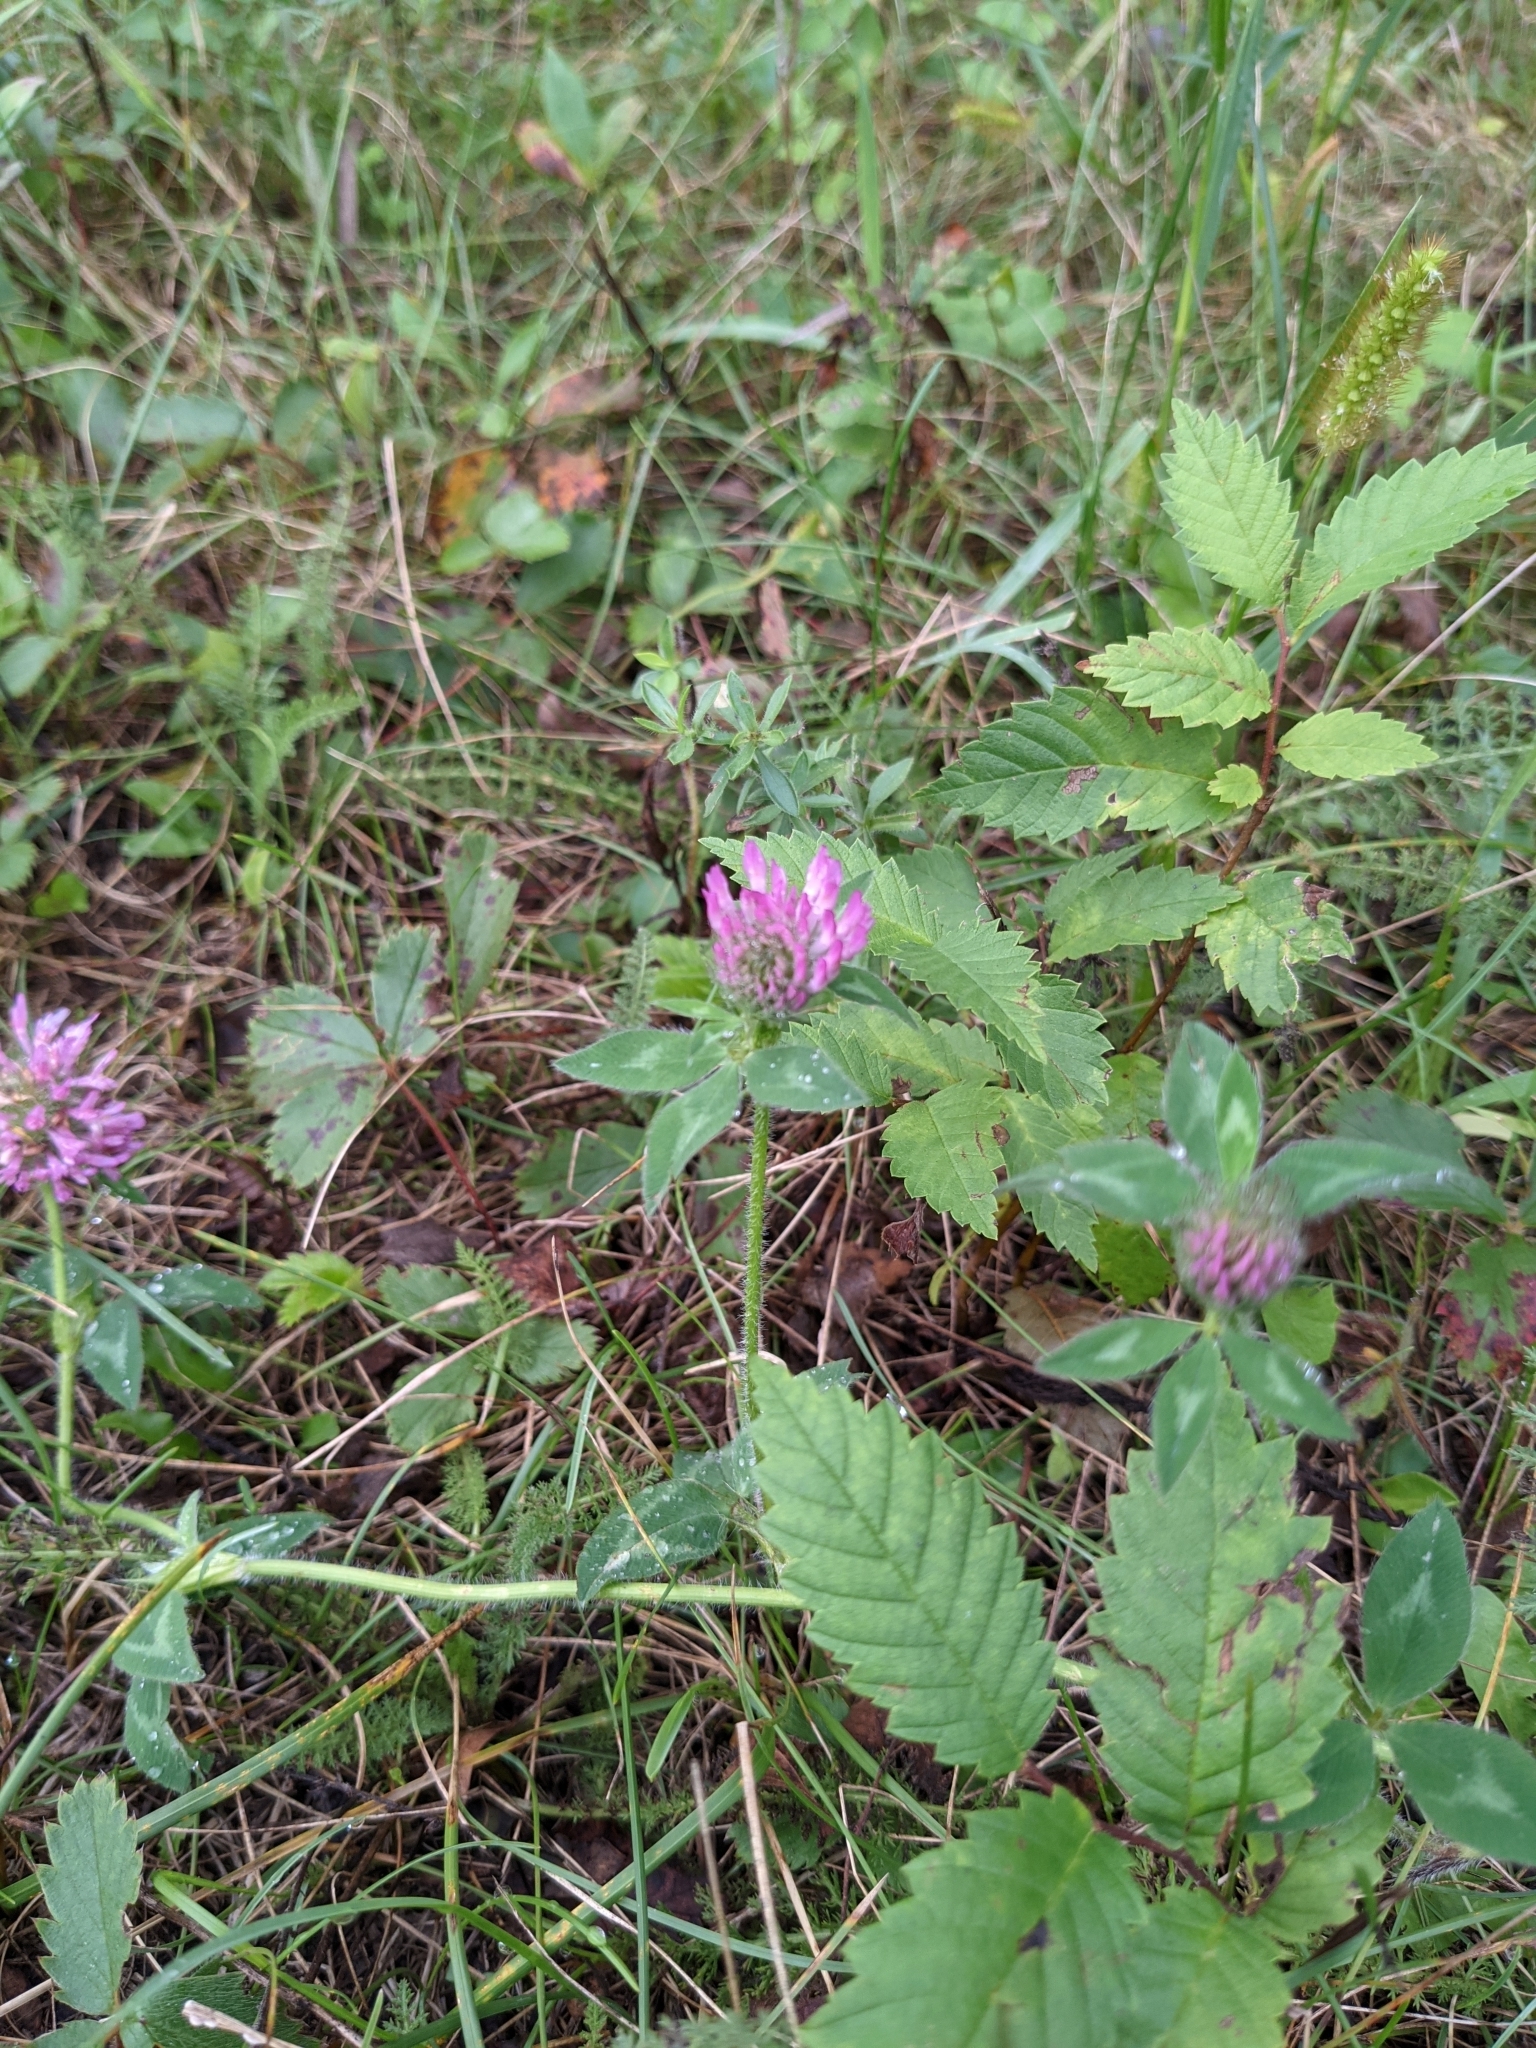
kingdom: Plantae
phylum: Tracheophyta
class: Magnoliopsida
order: Fabales
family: Fabaceae
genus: Trifolium
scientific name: Trifolium pratense
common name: Red clover
